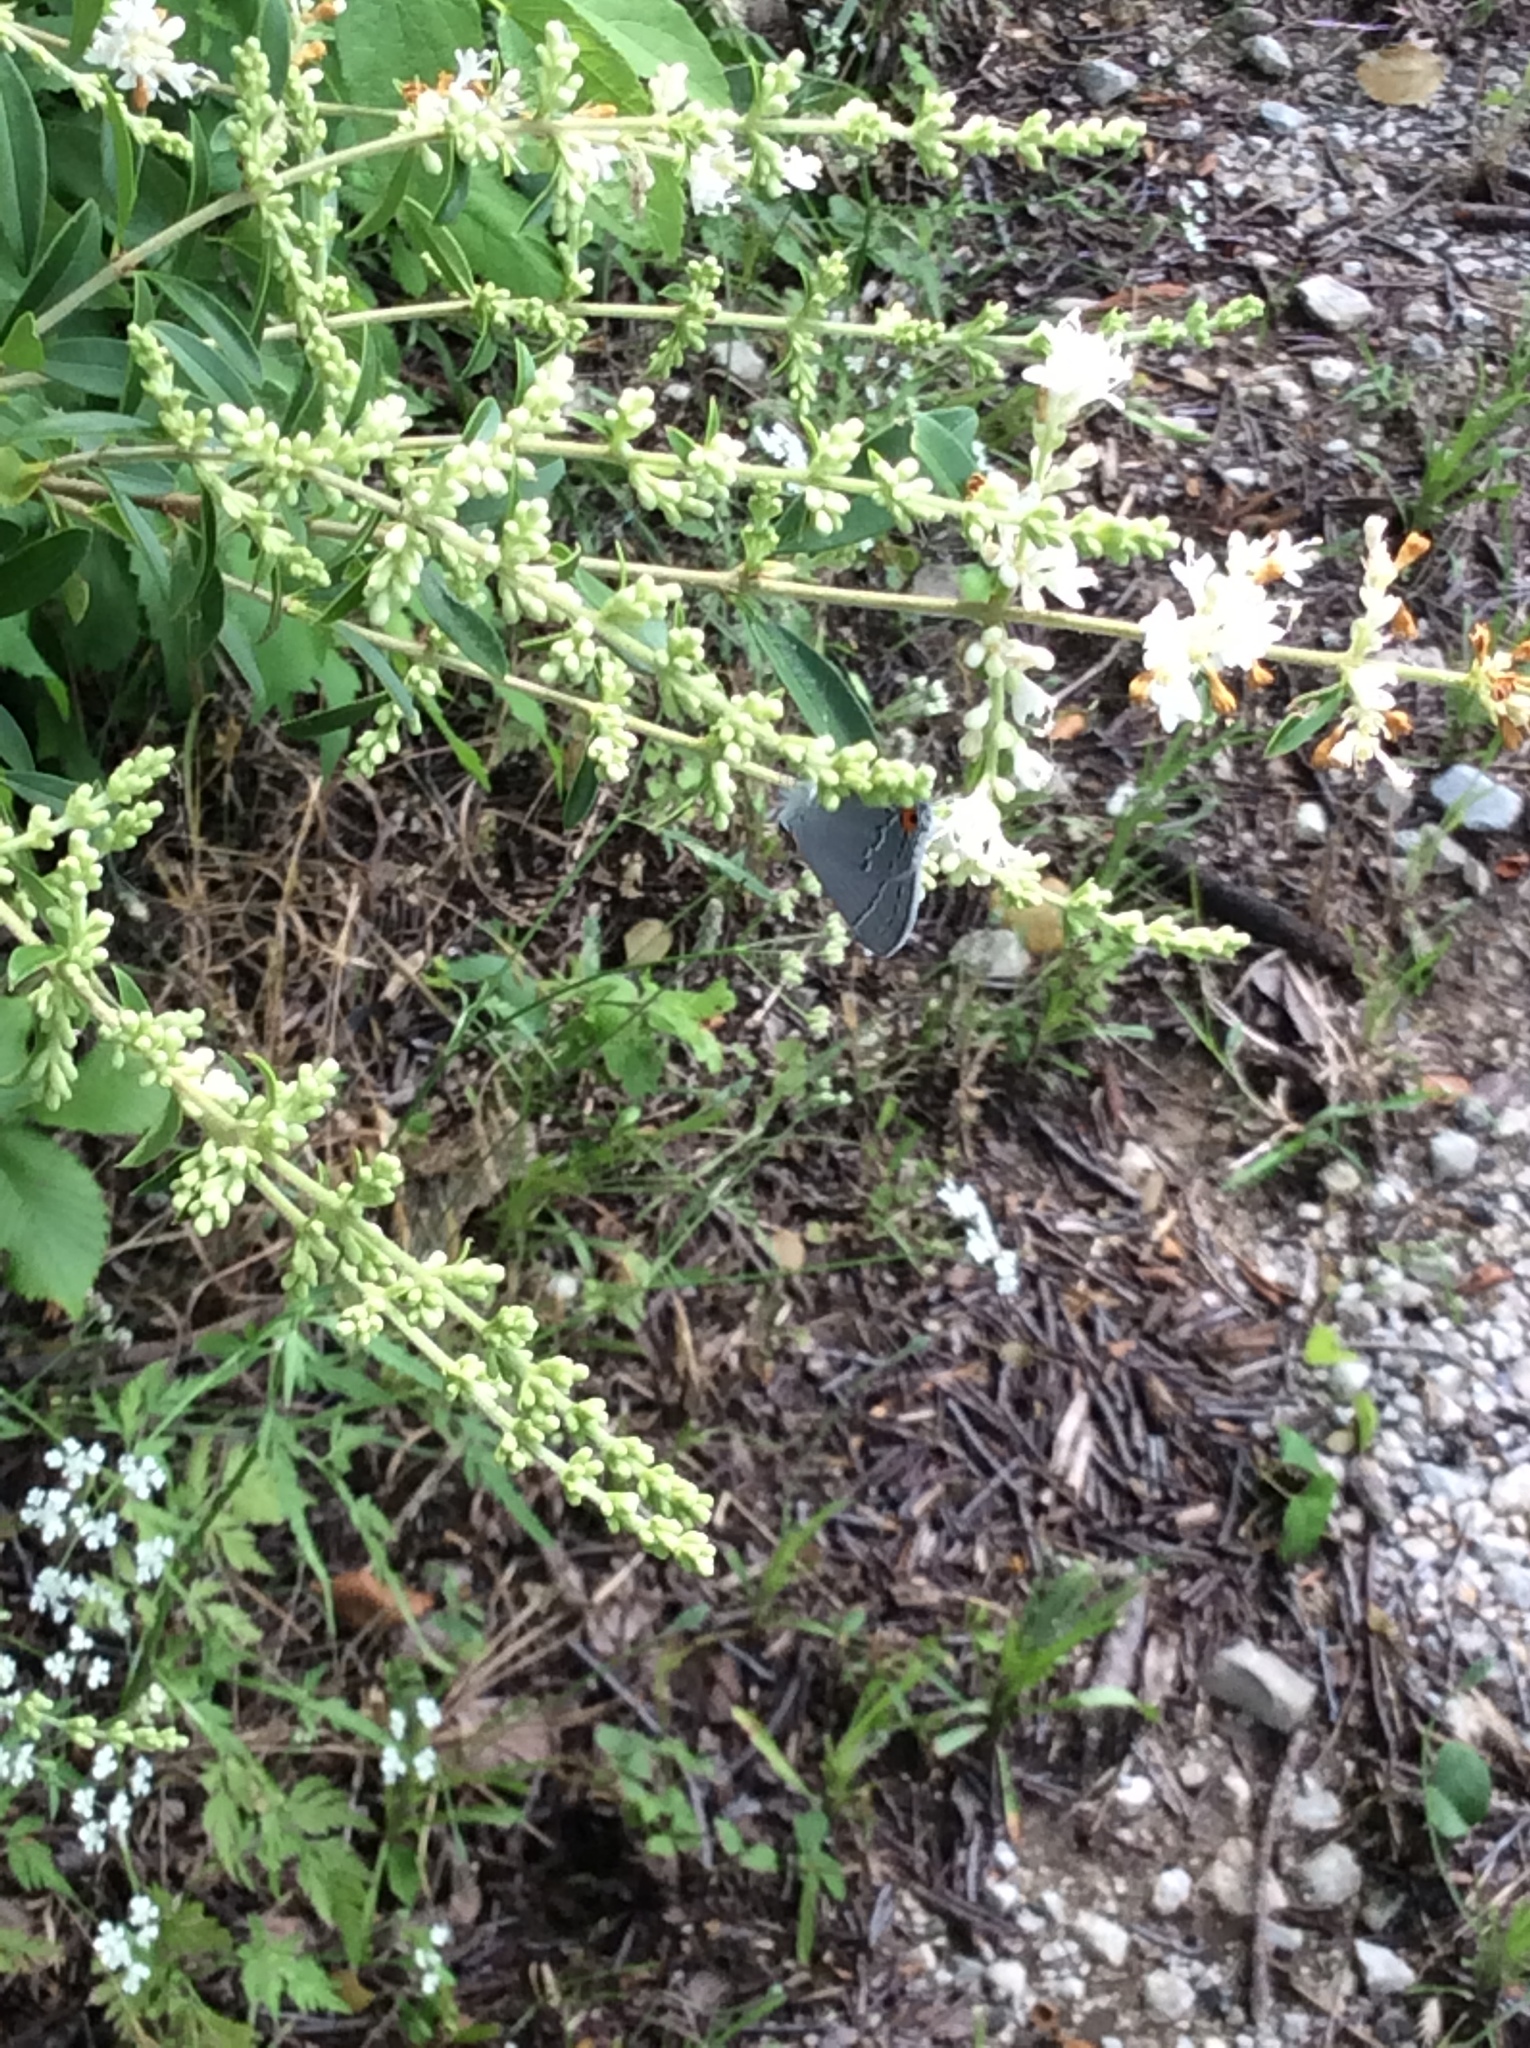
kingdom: Plantae
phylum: Tracheophyta
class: Magnoliopsida
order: Lamiales
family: Oleaceae
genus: Ligustrum
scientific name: Ligustrum quihoui
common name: Waxyleaf privet
